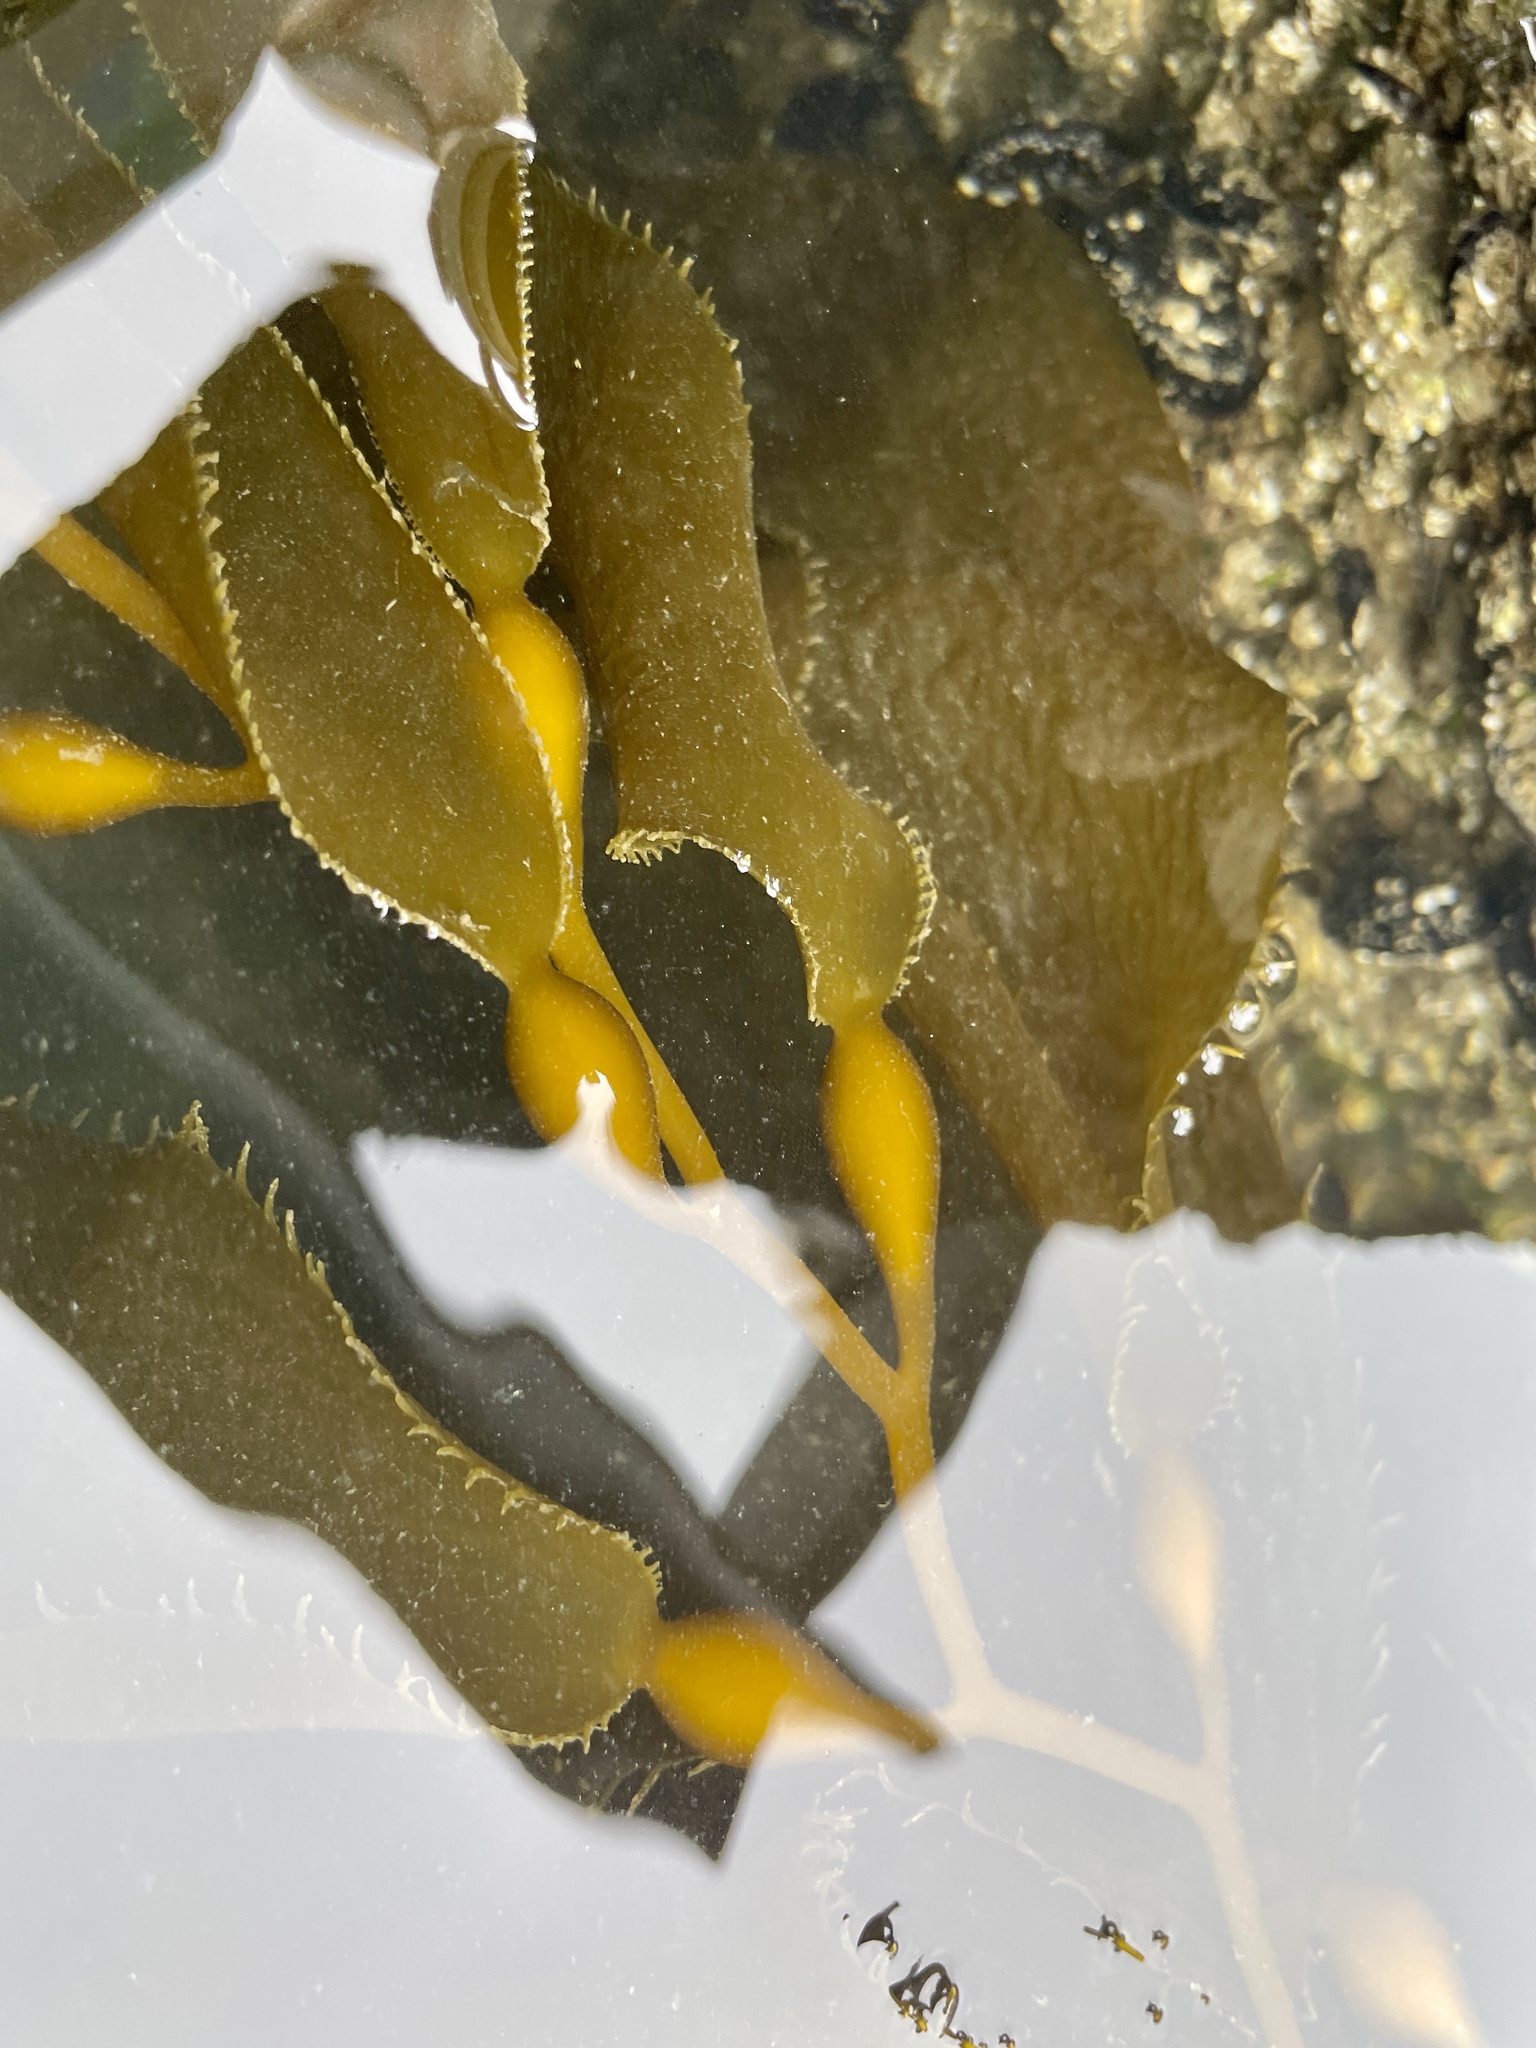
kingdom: Chromista
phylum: Ochrophyta
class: Phaeophyceae
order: Laminariales
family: Laminariaceae
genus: Macrocystis
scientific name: Macrocystis pyrifera
